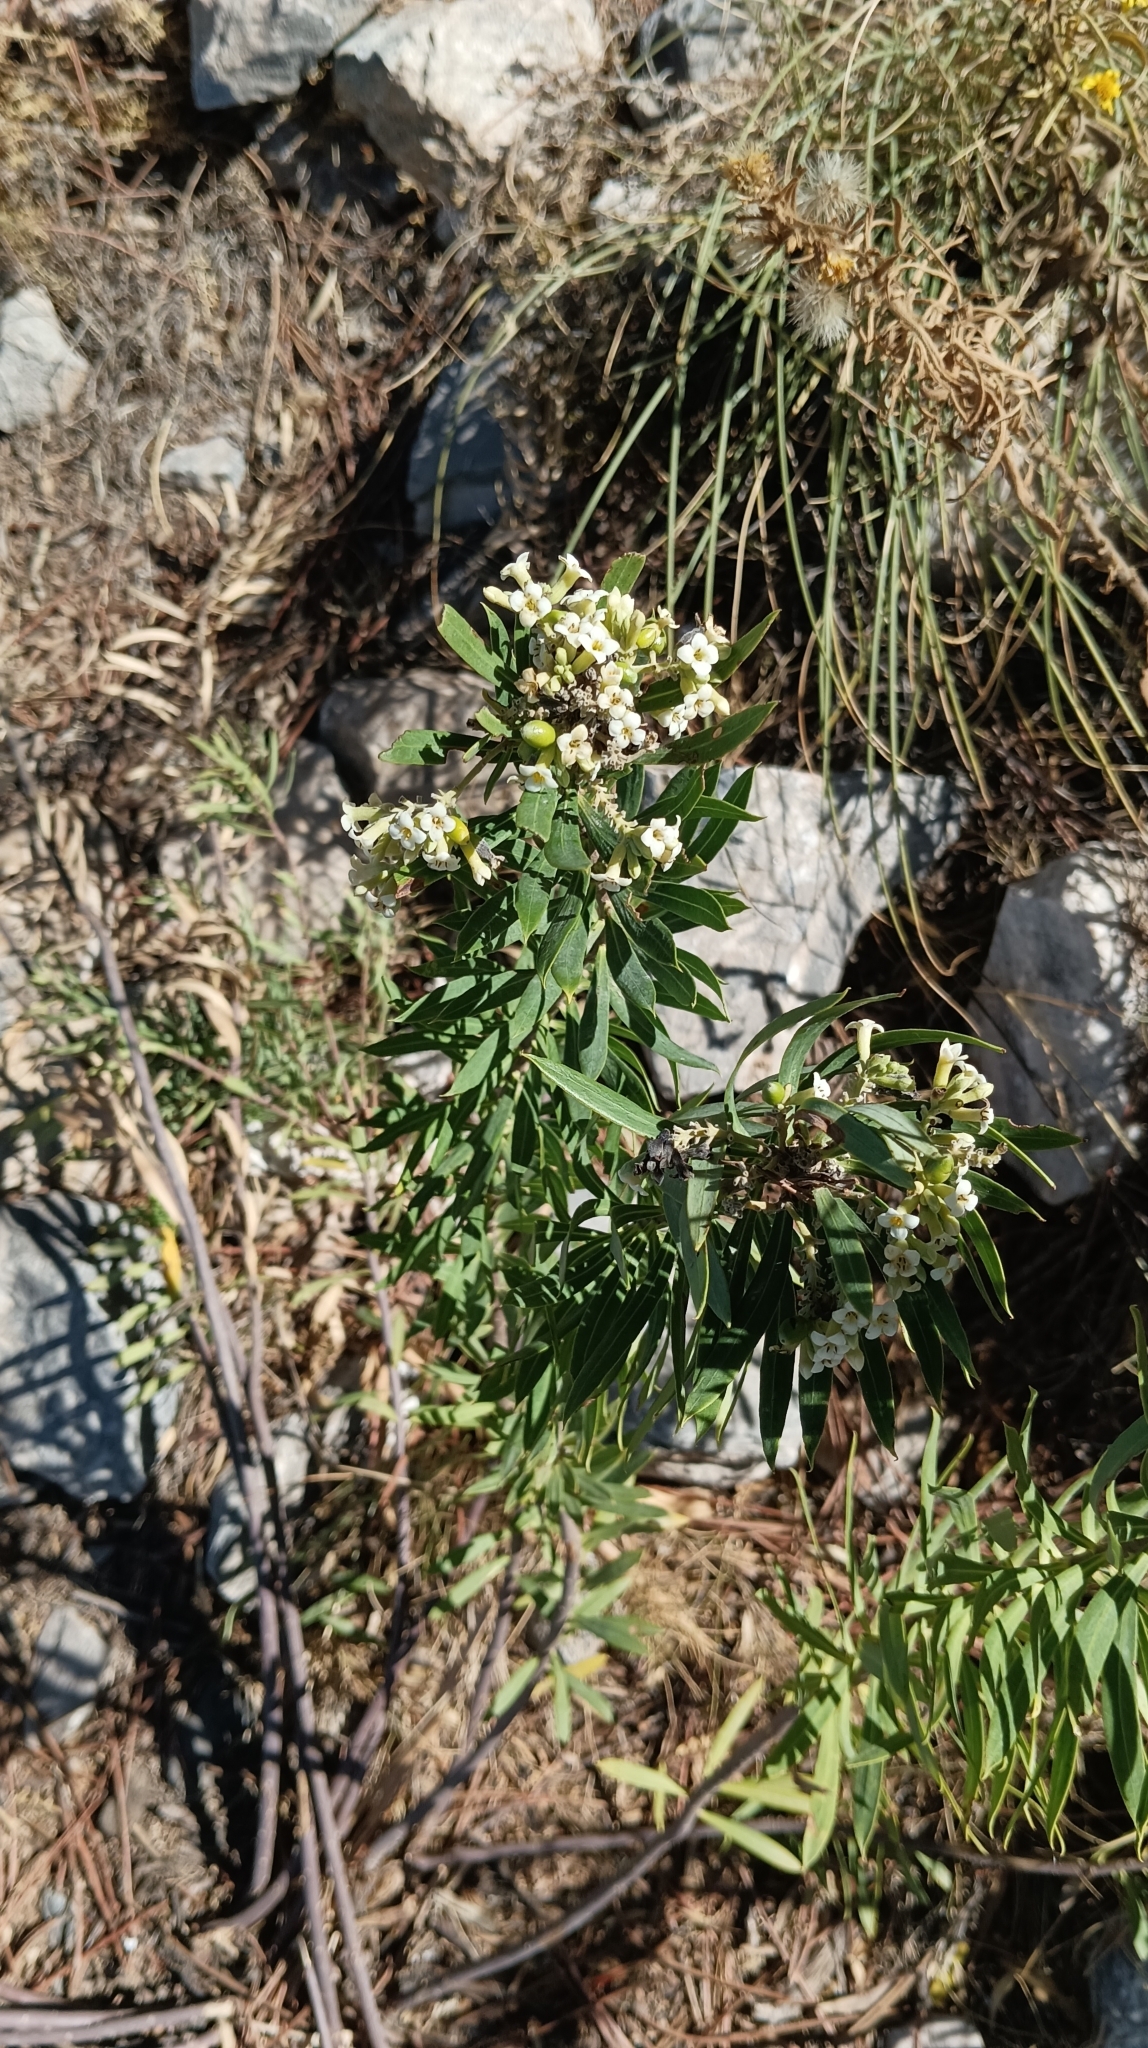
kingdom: Plantae
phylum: Tracheophyta
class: Magnoliopsida
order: Malvales
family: Thymelaeaceae
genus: Daphne
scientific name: Daphne gnidium
